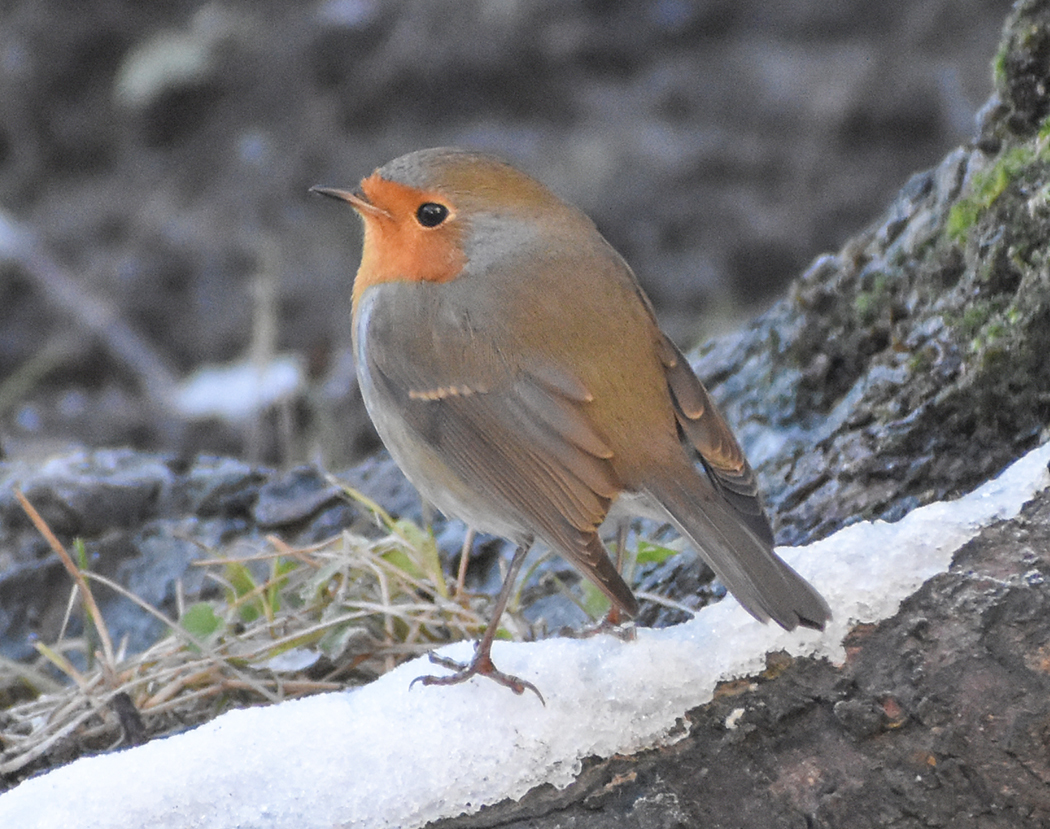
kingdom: Animalia
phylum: Chordata
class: Aves
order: Passeriformes
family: Muscicapidae
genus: Erithacus
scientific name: Erithacus rubecula
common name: European robin
